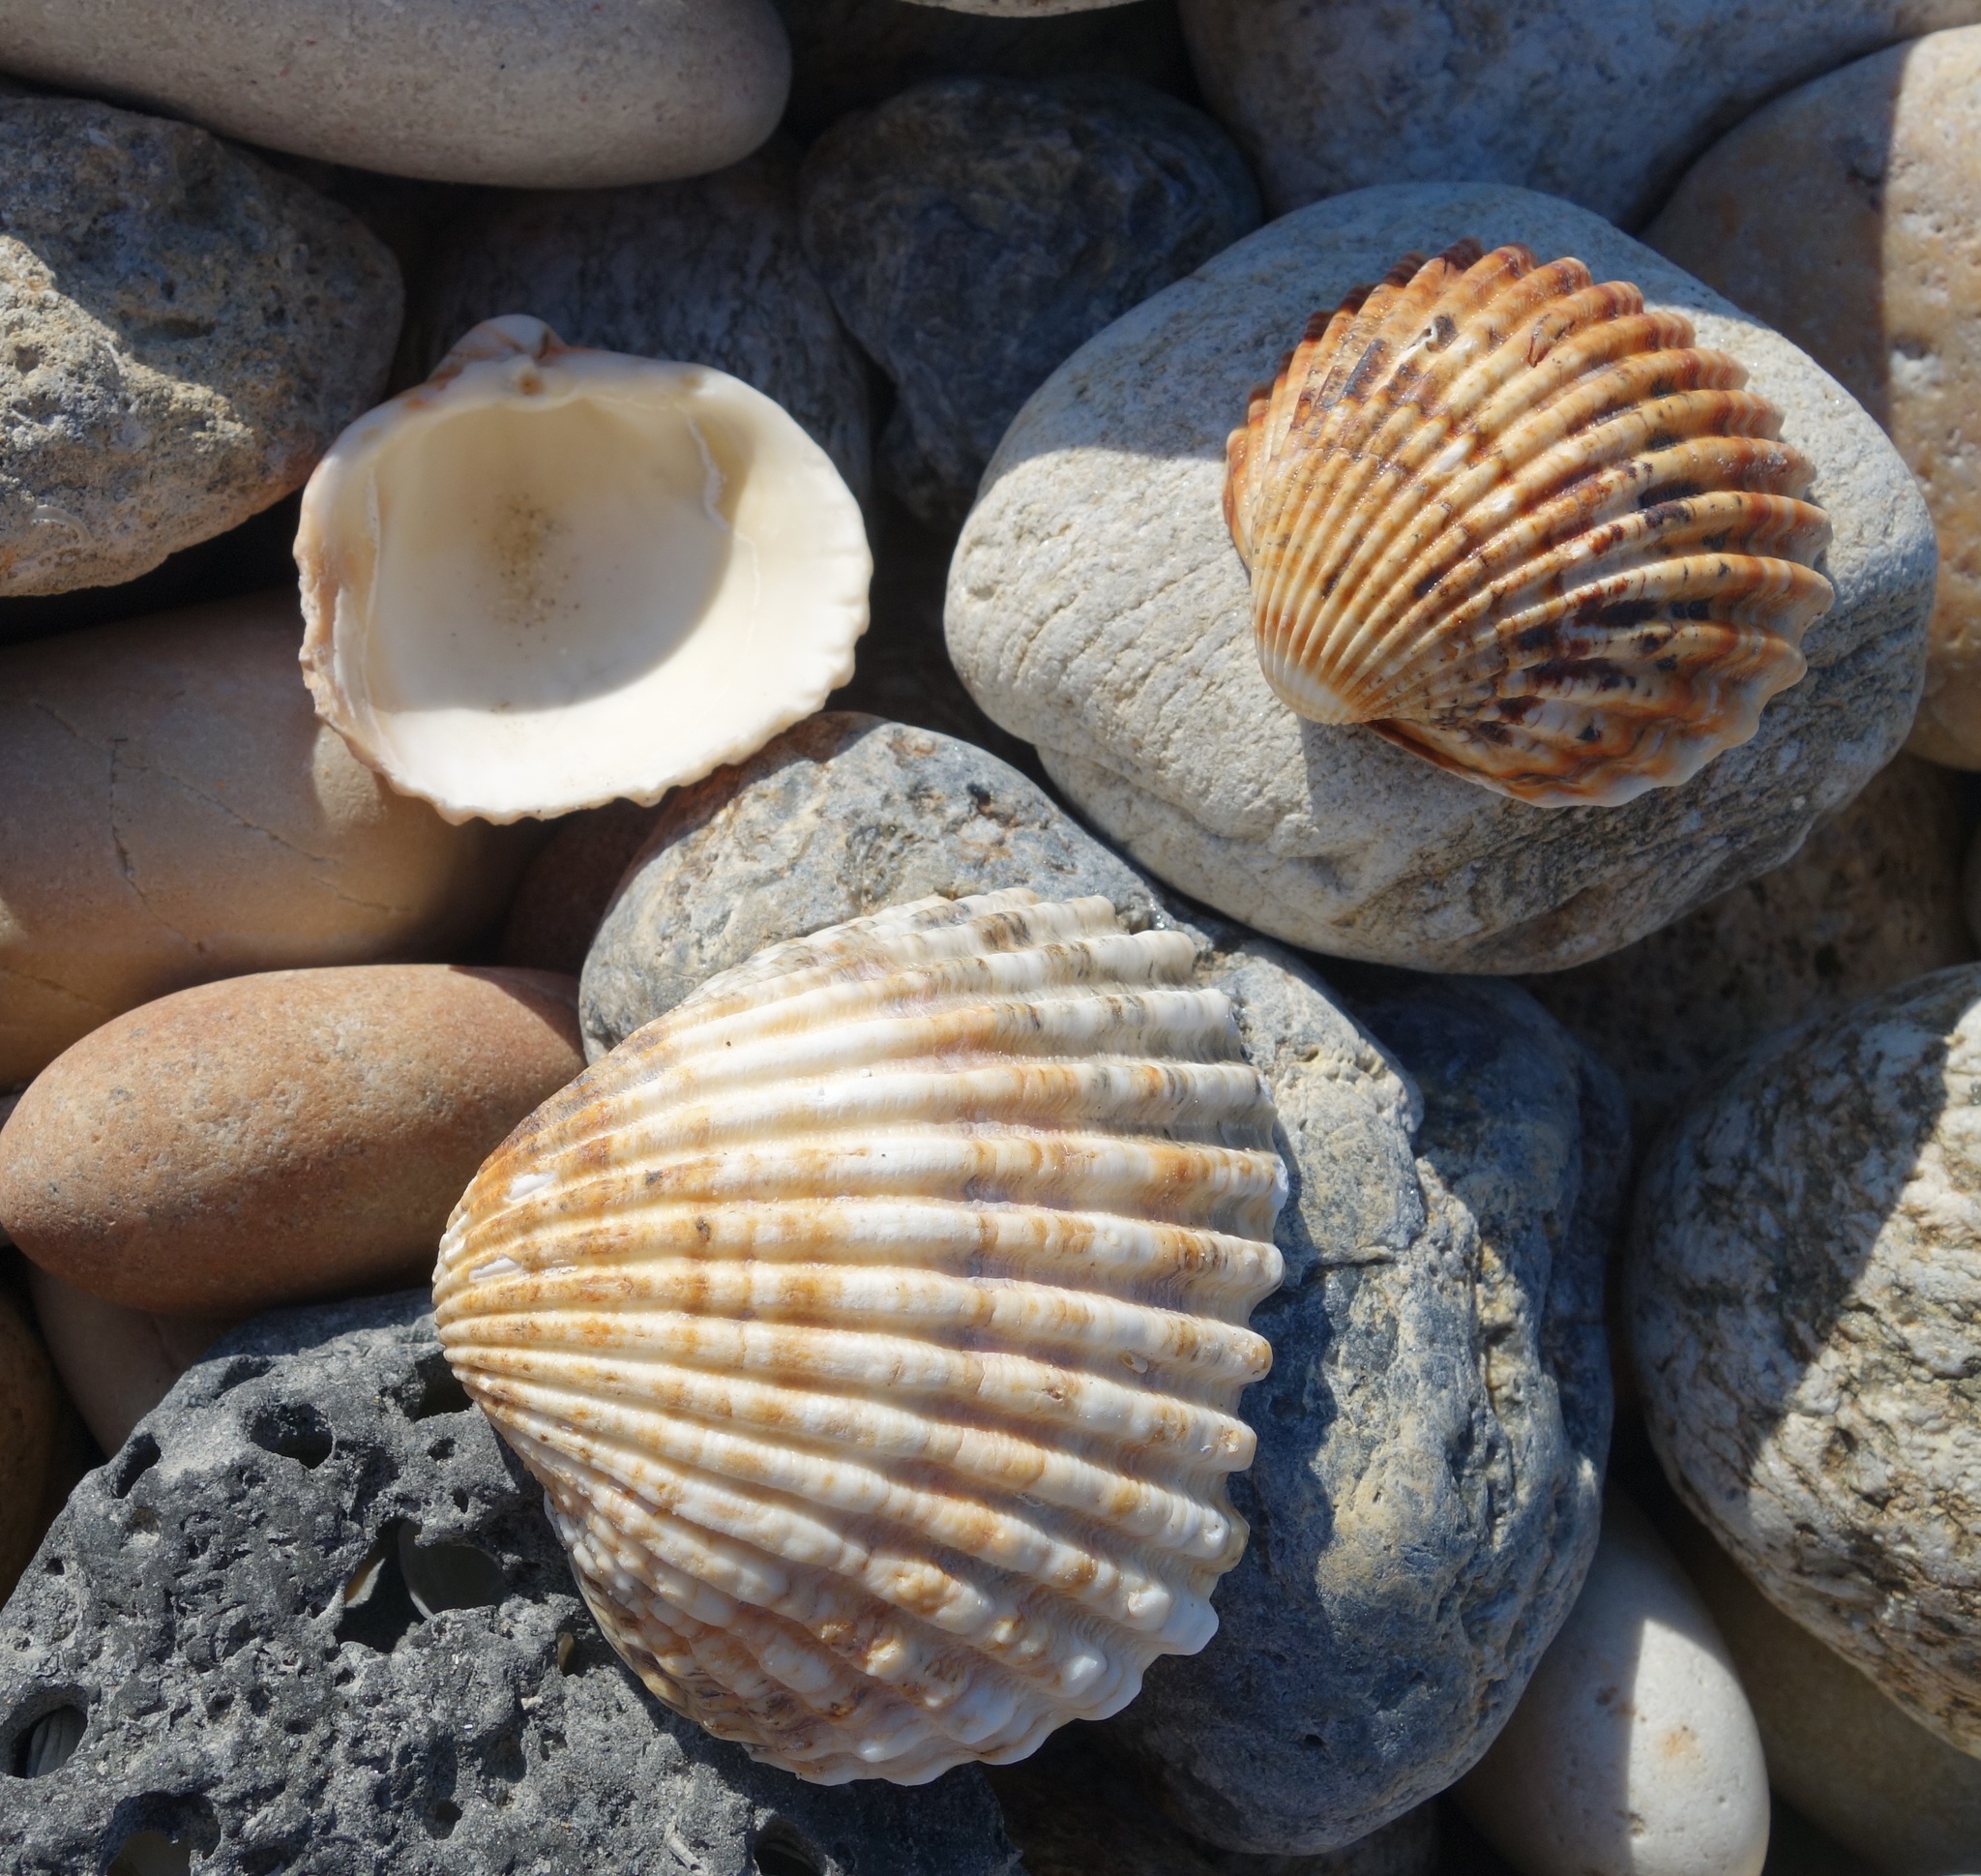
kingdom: Animalia
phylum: Mollusca
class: Bivalvia
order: Cardiida
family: Cardiidae
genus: Acanthocardia
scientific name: Acanthocardia tuberculata
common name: Rough cockle
